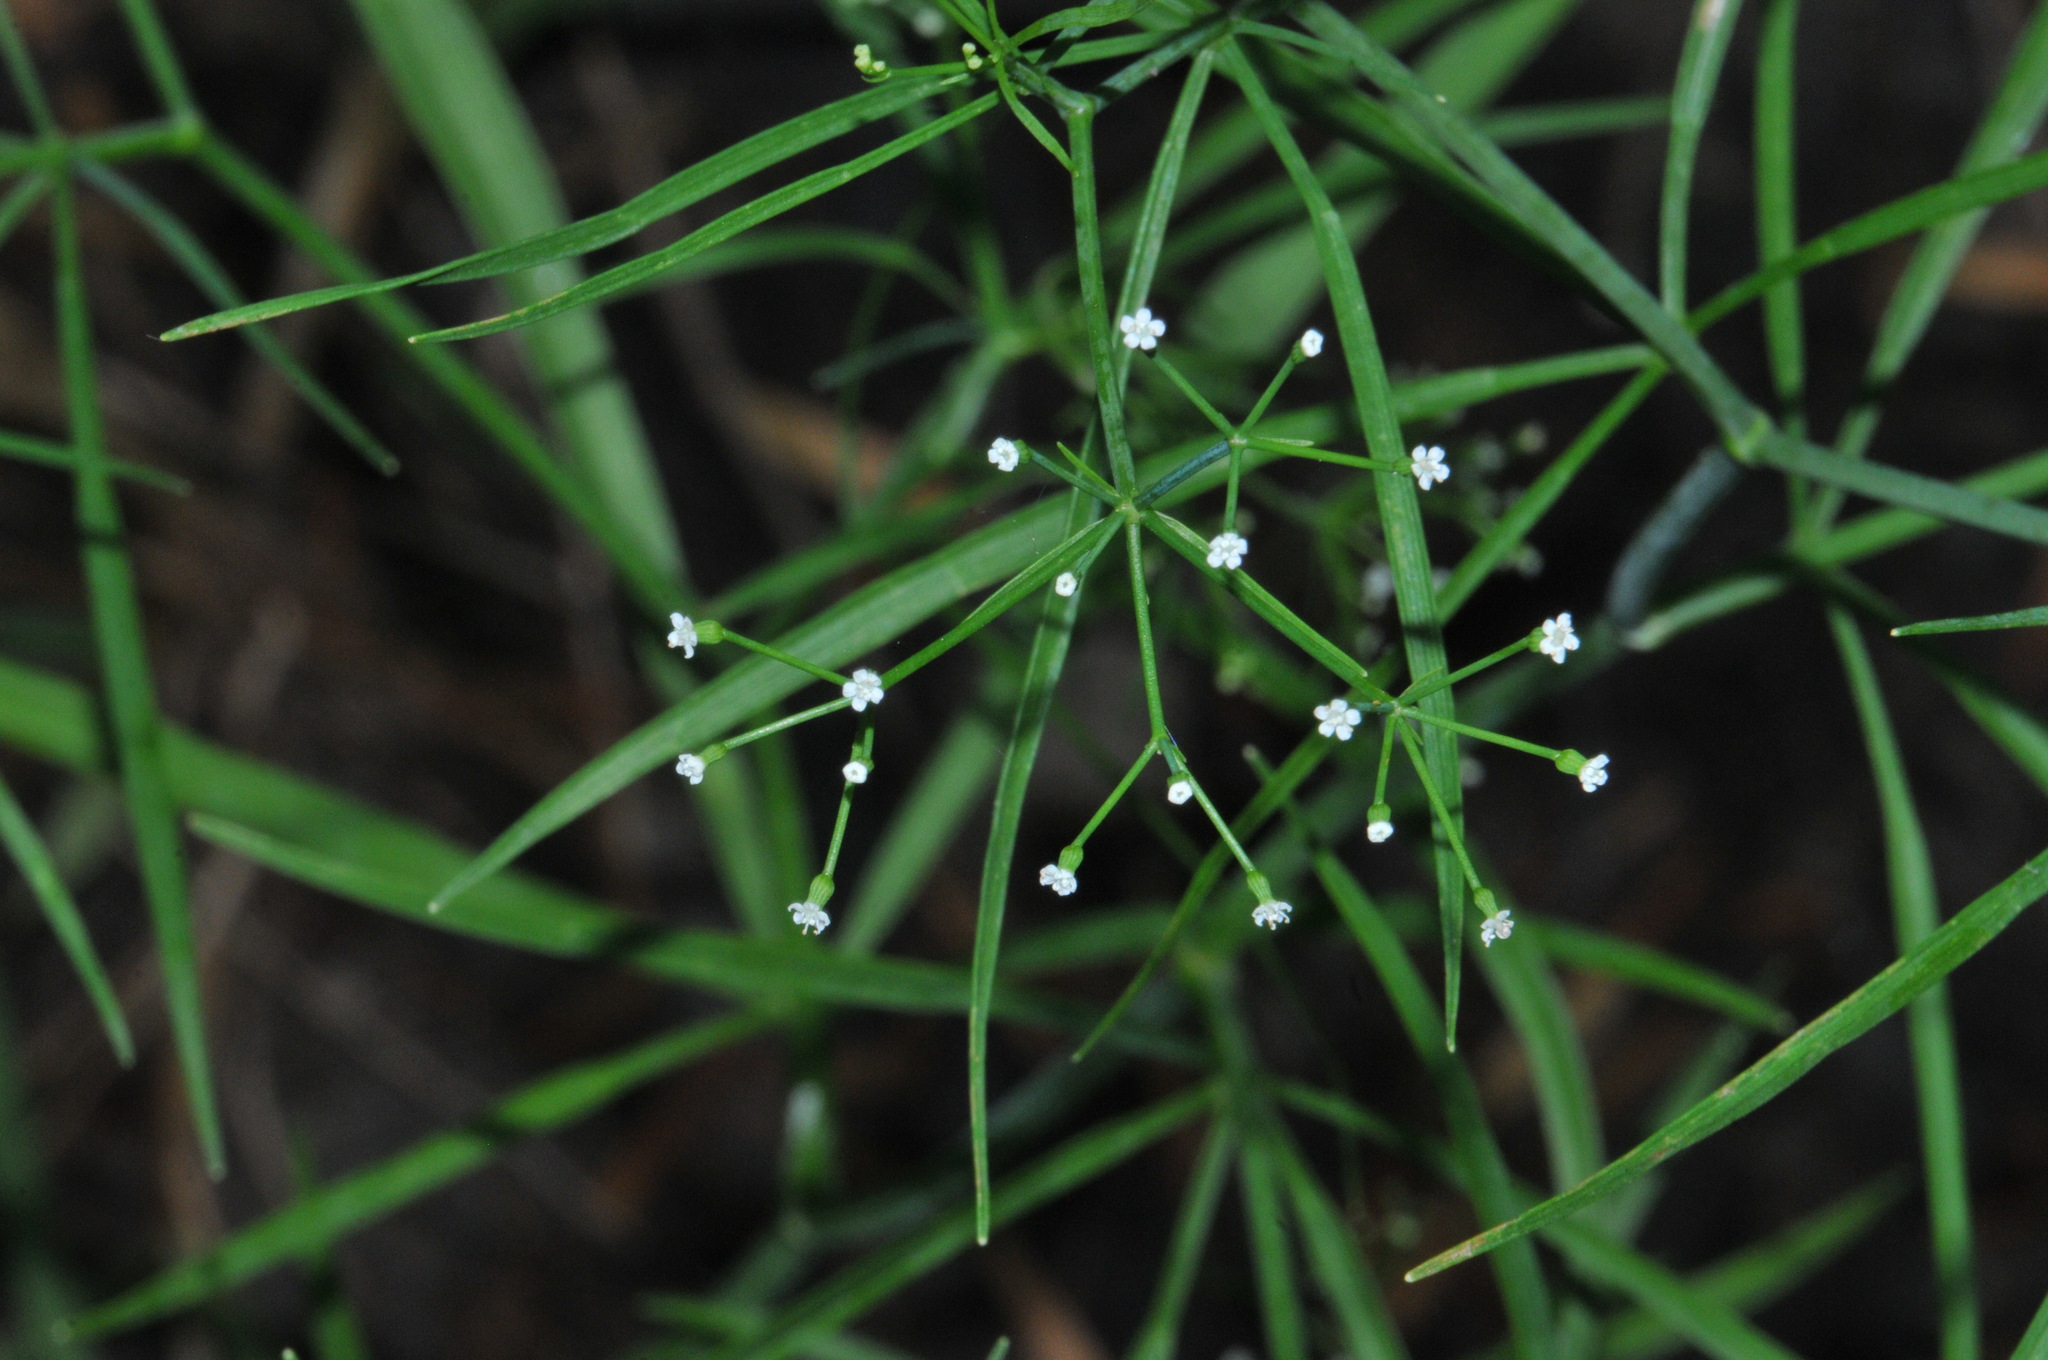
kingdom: Plantae
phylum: Tracheophyta
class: Magnoliopsida
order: Apiales
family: Apiaceae
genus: Cynosciadium
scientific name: Cynosciadium digitatum
